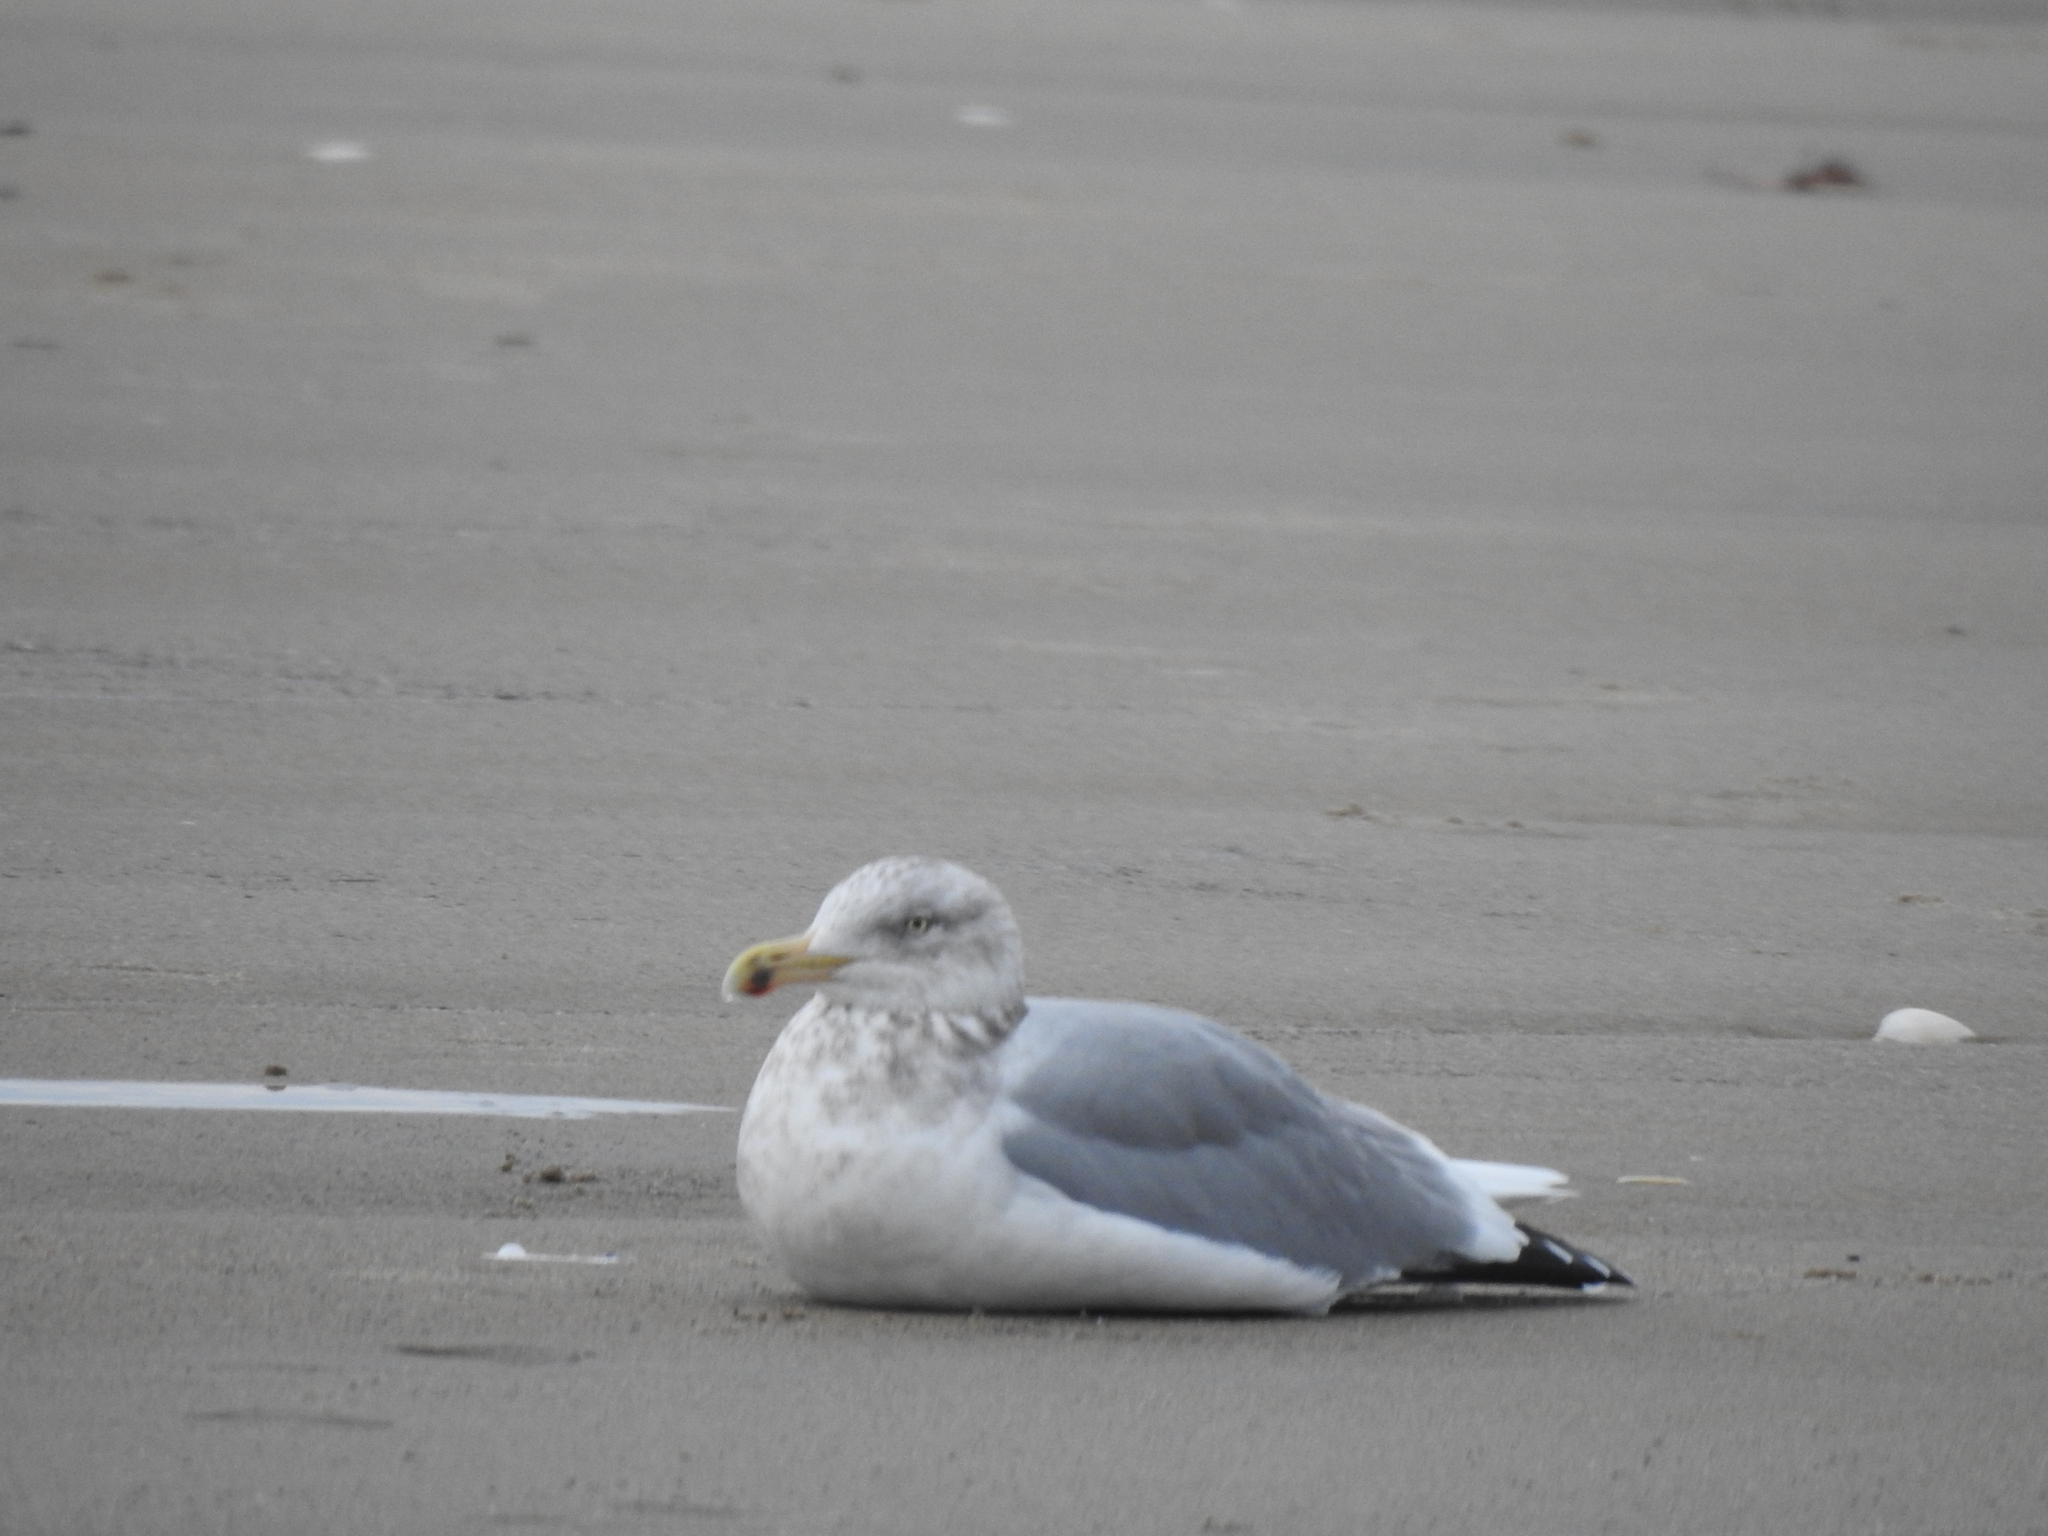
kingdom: Animalia
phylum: Chordata
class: Aves
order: Charadriiformes
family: Laridae
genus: Larus
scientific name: Larus argentatus
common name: Herring gull
